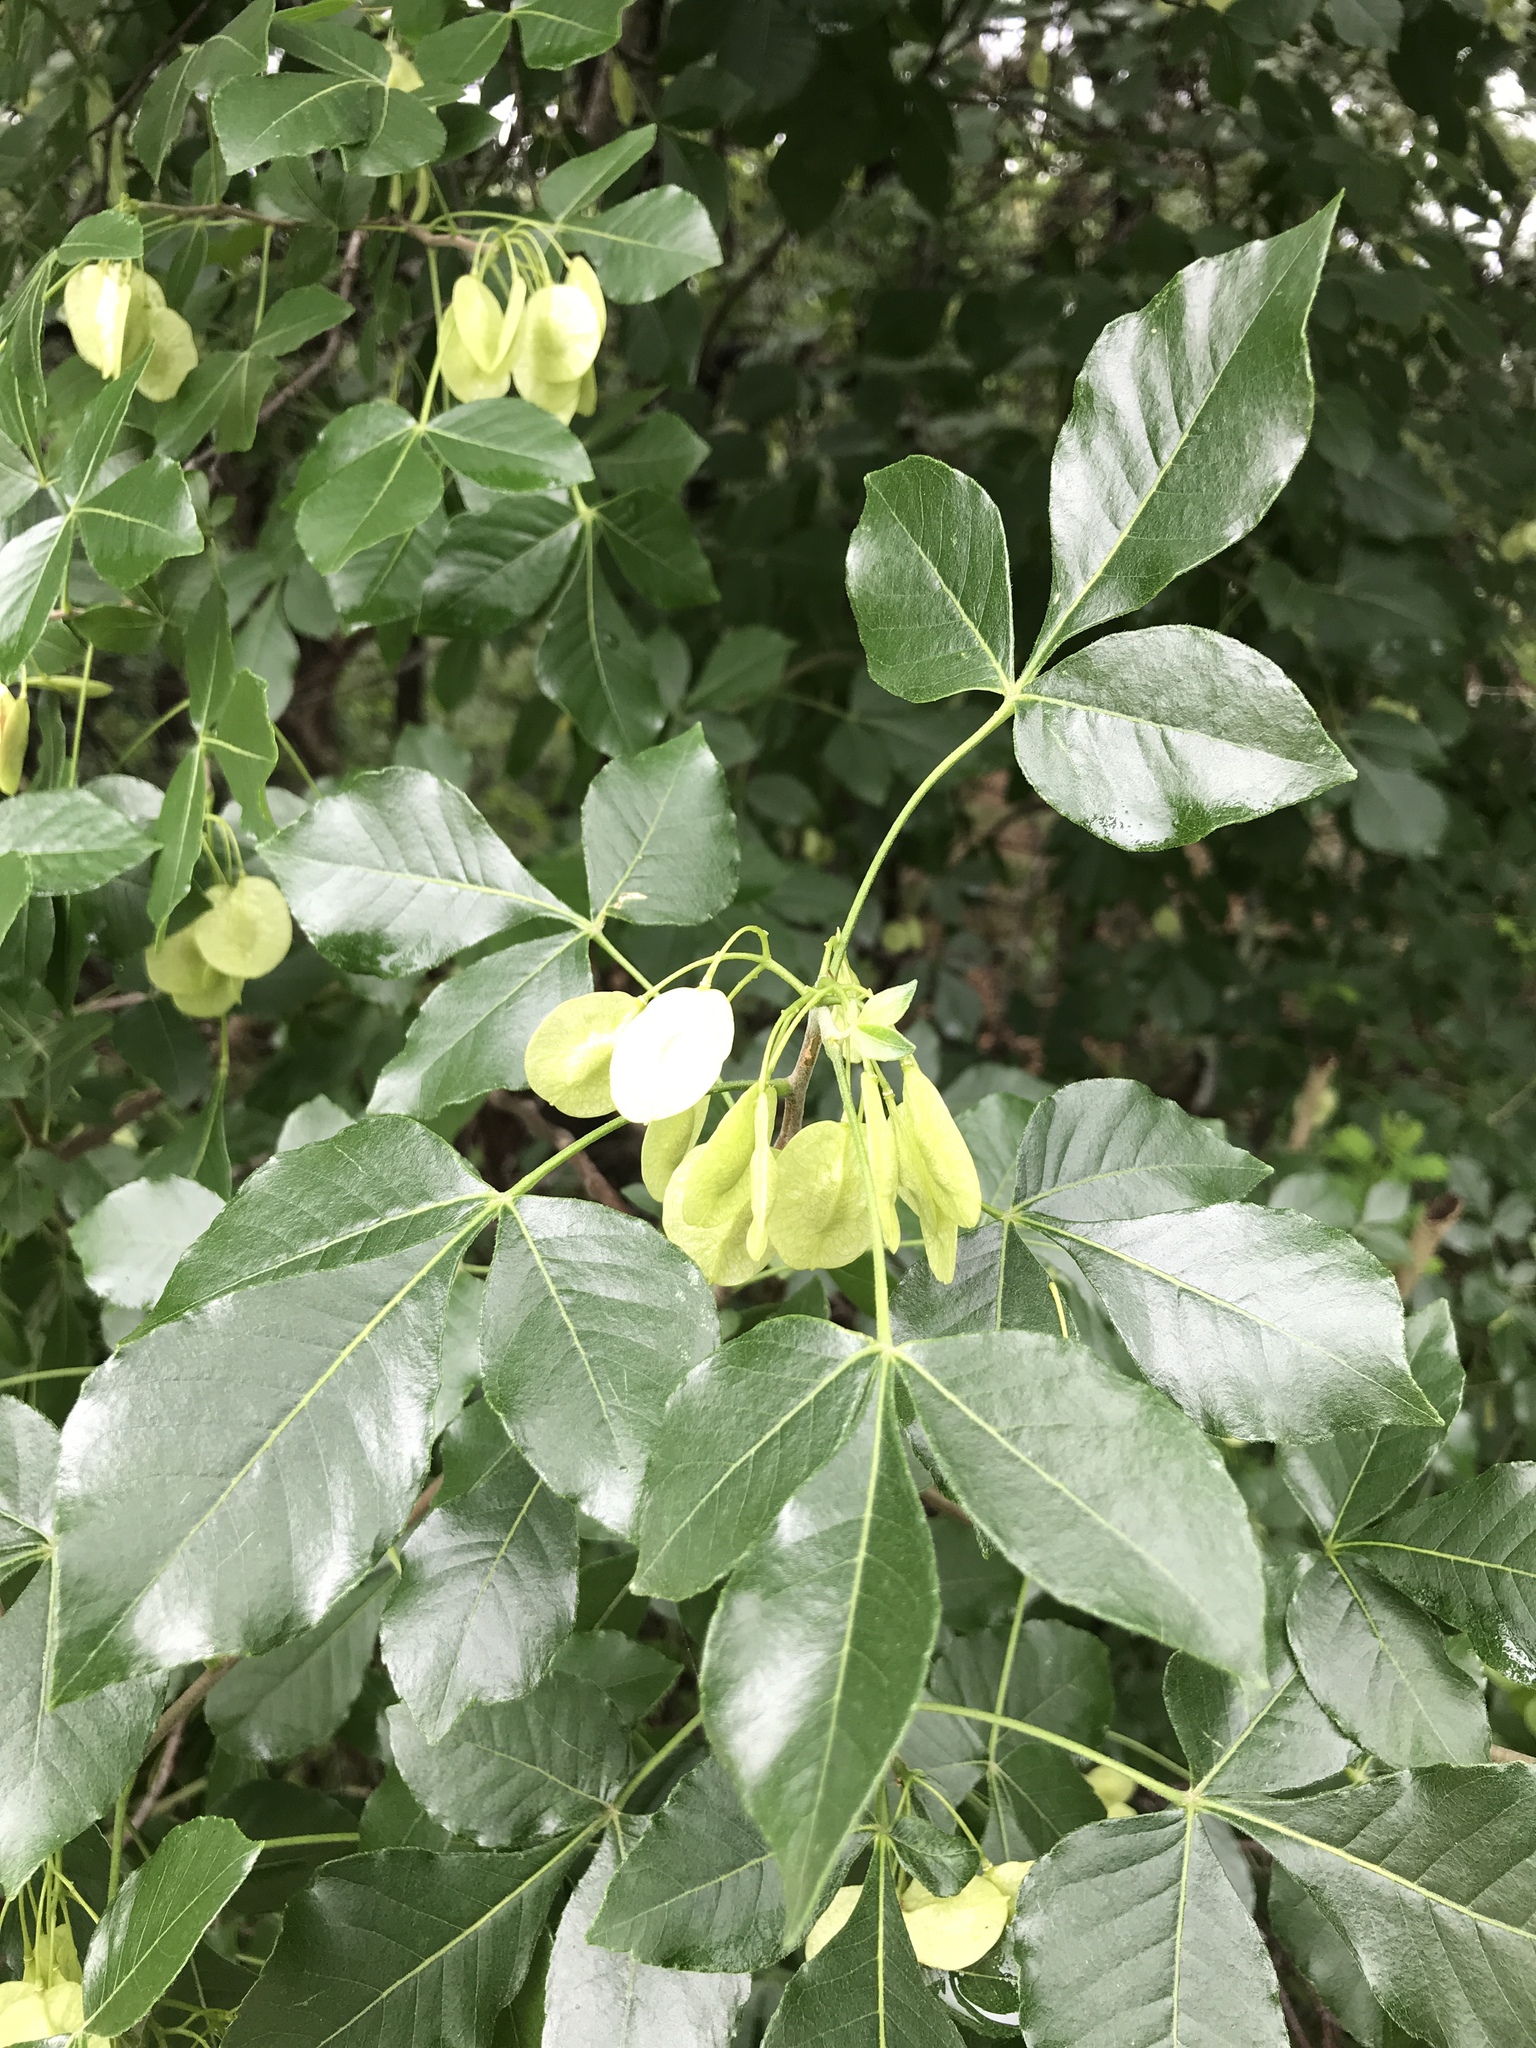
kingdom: Plantae
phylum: Tracheophyta
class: Magnoliopsida
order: Sapindales
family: Rutaceae
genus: Ptelea
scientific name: Ptelea trifoliata
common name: Common hop-tree
